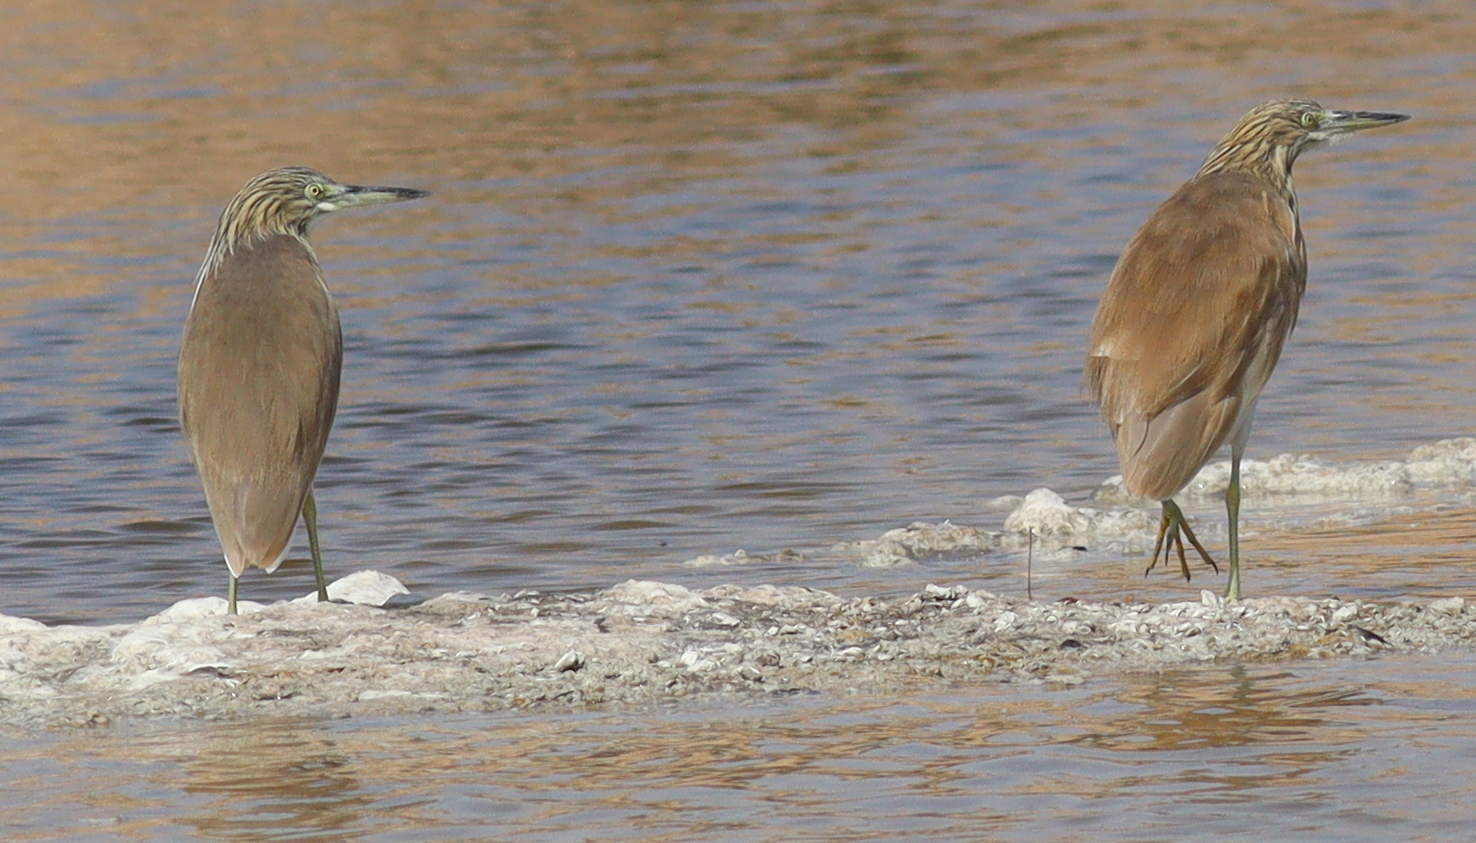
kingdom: Animalia
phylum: Chordata
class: Aves
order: Pelecaniformes
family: Ardeidae
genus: Ardeola
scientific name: Ardeola ralloides
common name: Squacco heron
